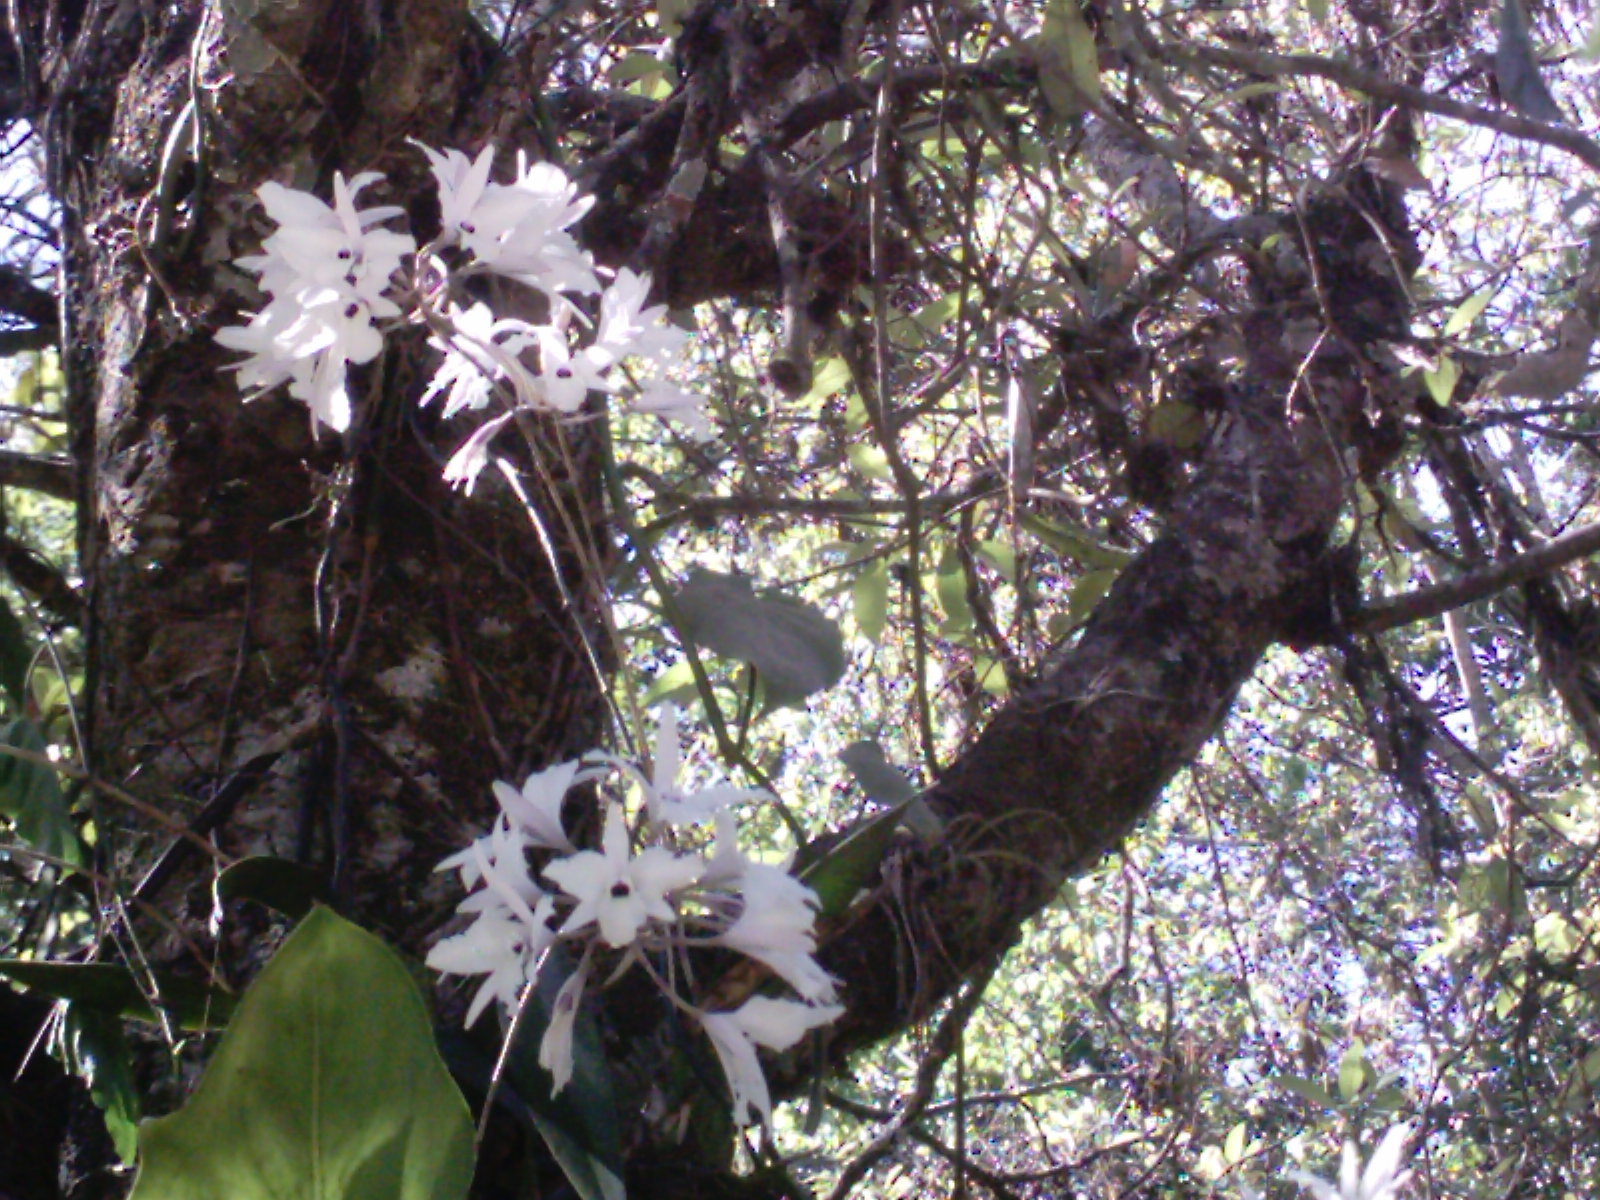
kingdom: Plantae
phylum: Tracheophyta
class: Liliopsida
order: Asparagales
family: Orchidaceae
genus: Laelia
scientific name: Laelia rubescens
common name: Pale laelia
